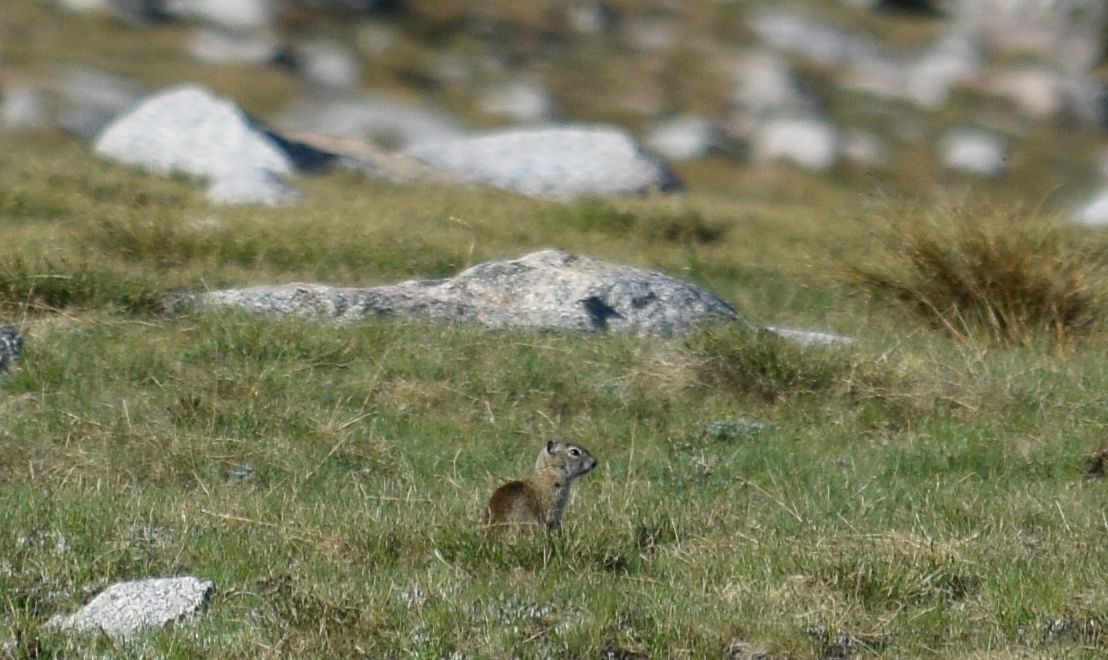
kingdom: Animalia
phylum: Chordata
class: Mammalia
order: Rodentia
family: Sciuridae
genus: Urocitellus
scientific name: Urocitellus beldingi
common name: Belding's ground squirrel
